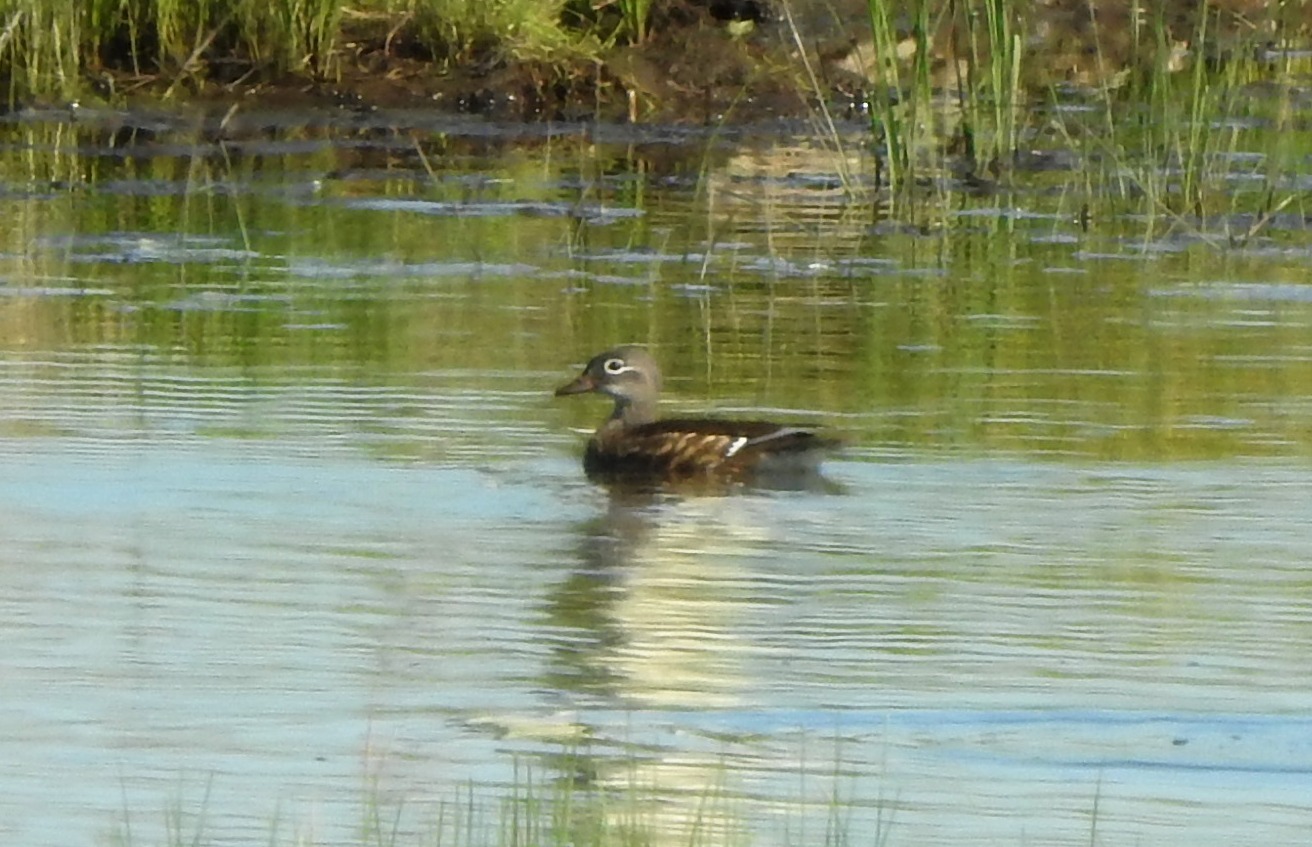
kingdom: Animalia
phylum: Chordata
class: Aves
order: Anseriformes
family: Anatidae
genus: Aix
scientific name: Aix galericulata
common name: Mandarin duck
